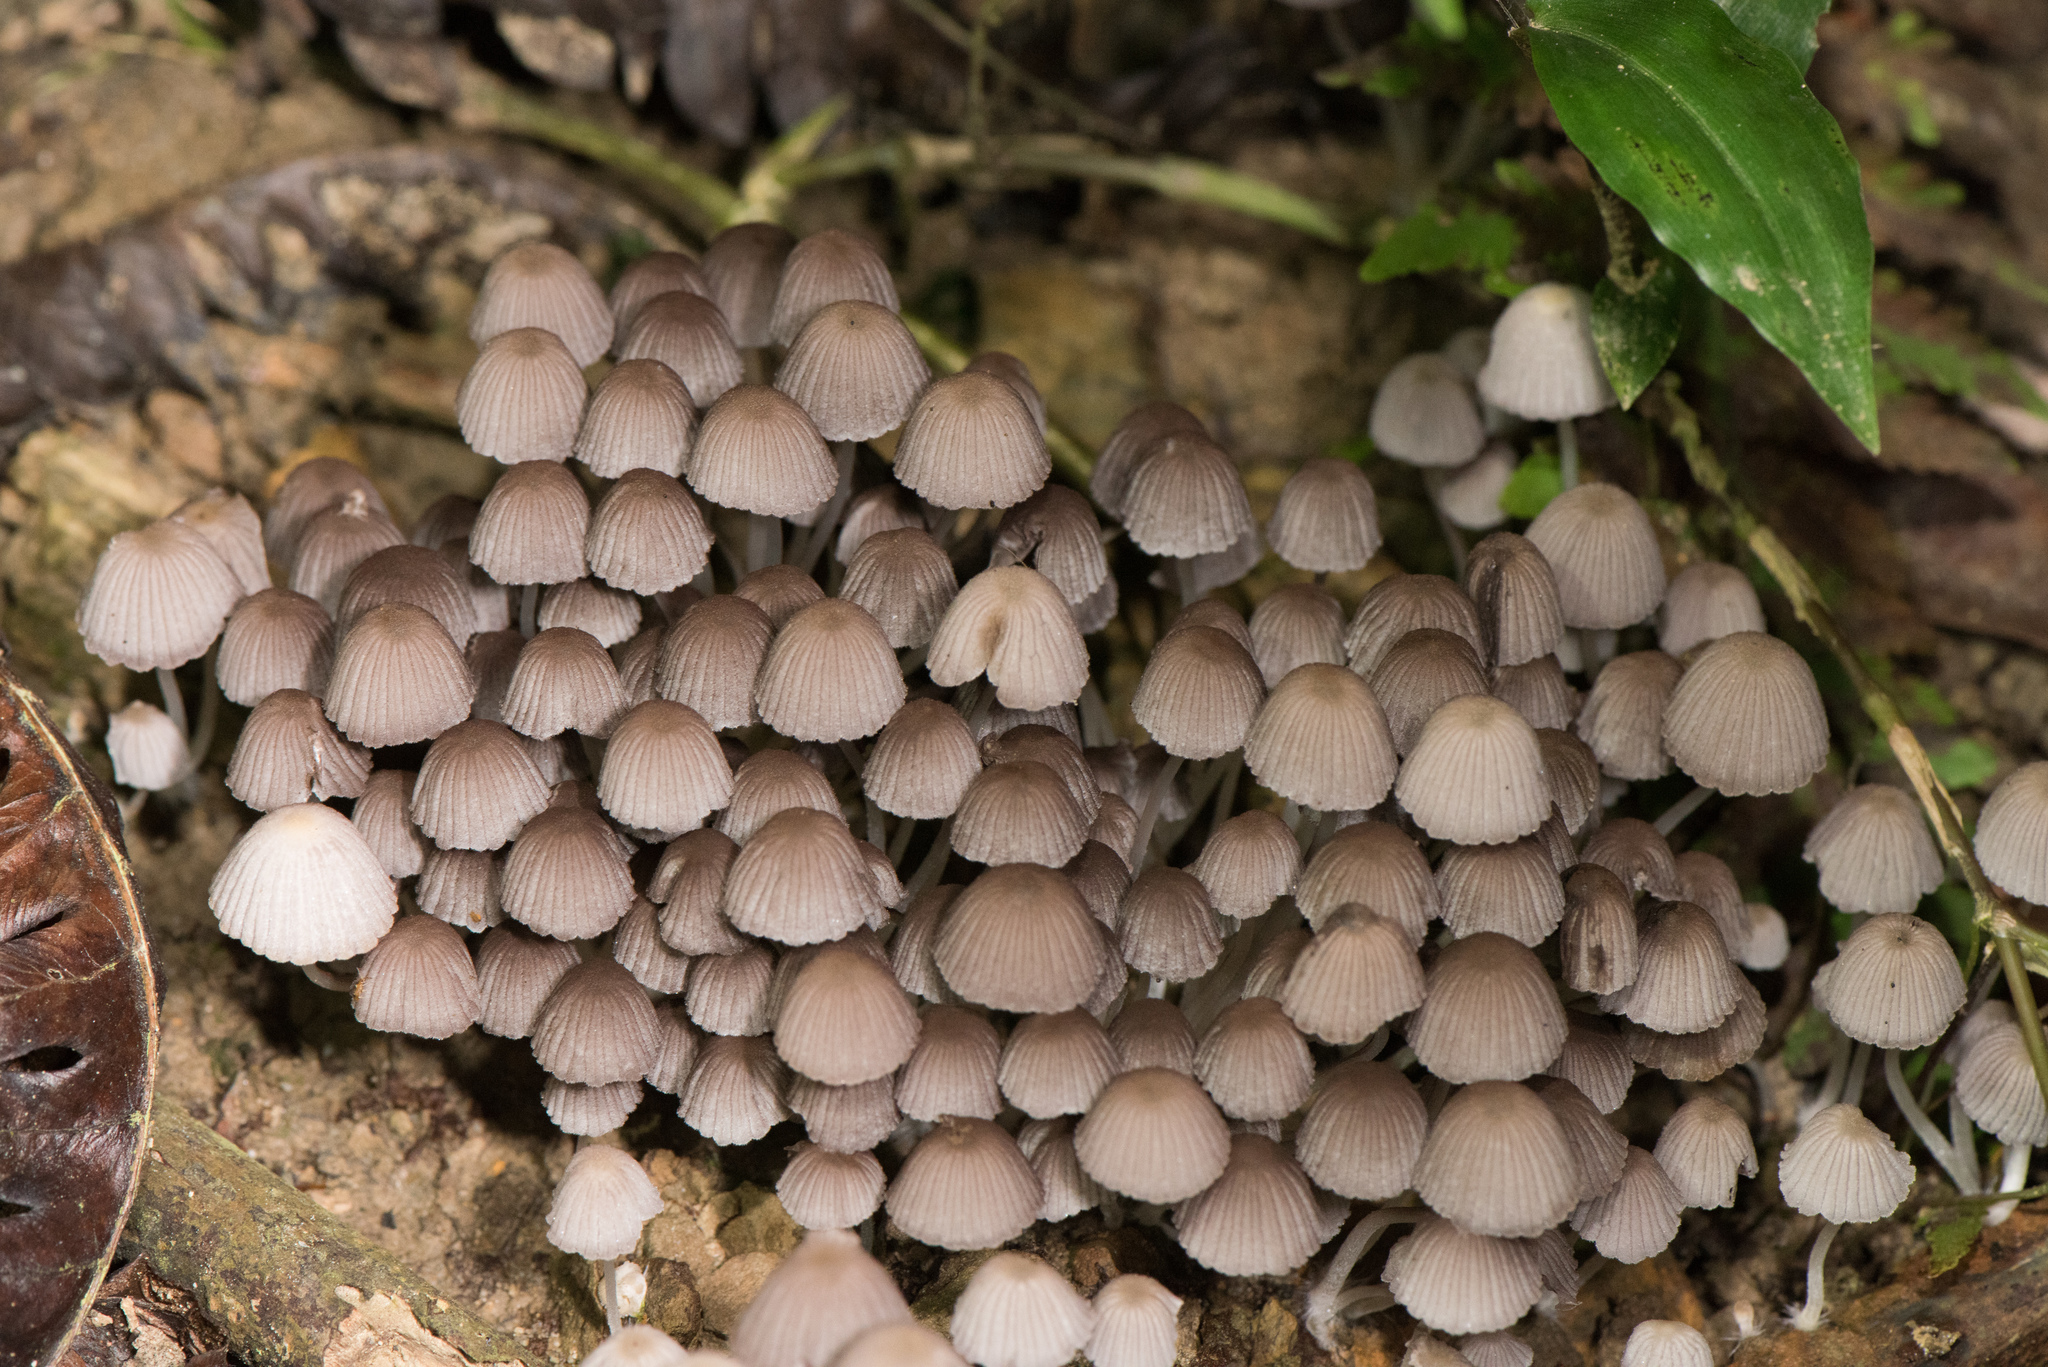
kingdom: Fungi
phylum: Basidiomycota
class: Agaricomycetes
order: Agaricales
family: Psathyrellaceae
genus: Coprinellus
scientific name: Coprinellus disseminatus
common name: Fairies' bonnets
